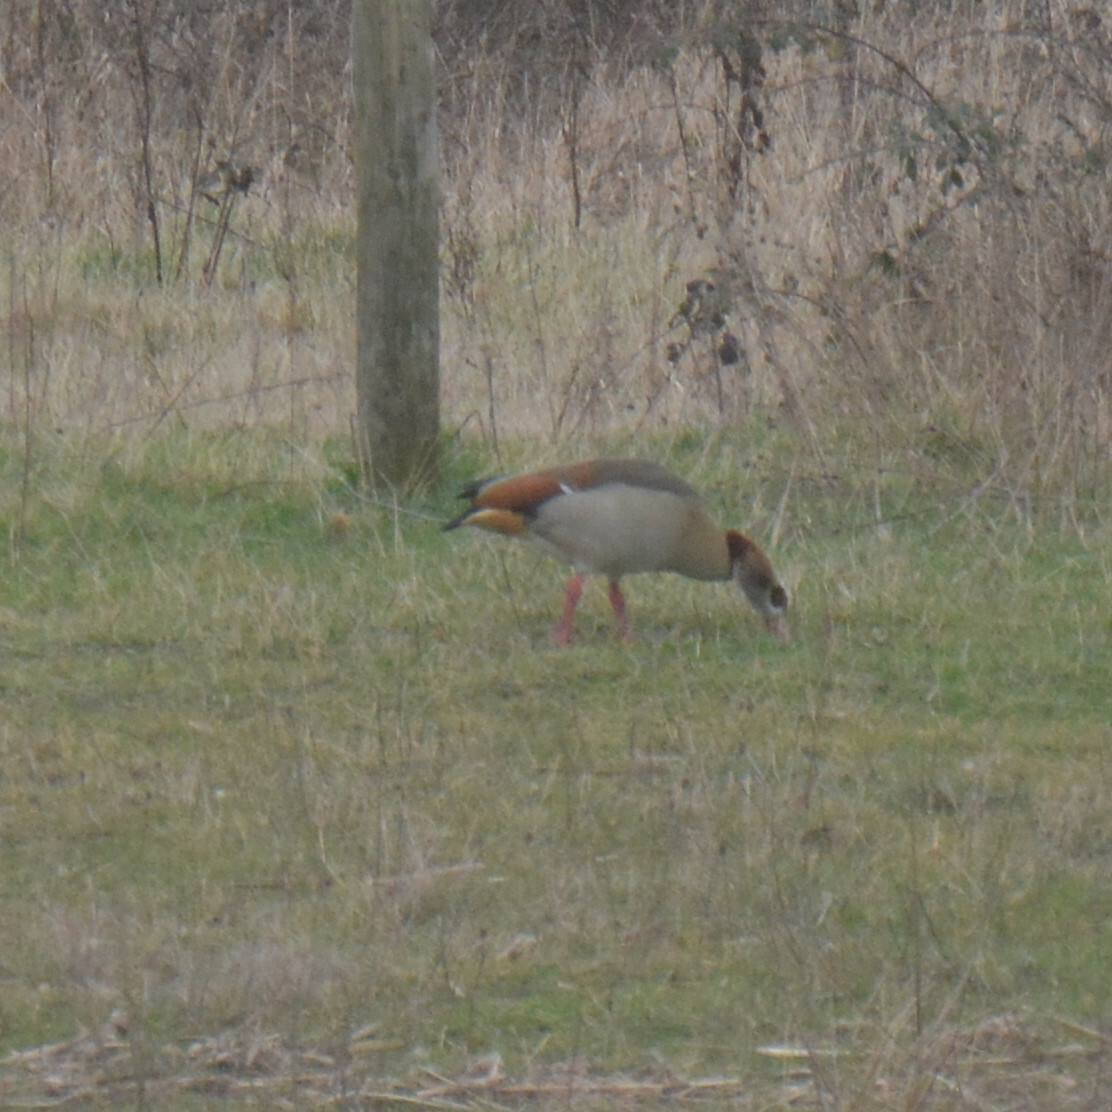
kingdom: Animalia
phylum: Chordata
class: Aves
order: Anseriformes
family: Anatidae
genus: Alopochen
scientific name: Alopochen aegyptiaca
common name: Egyptian goose
